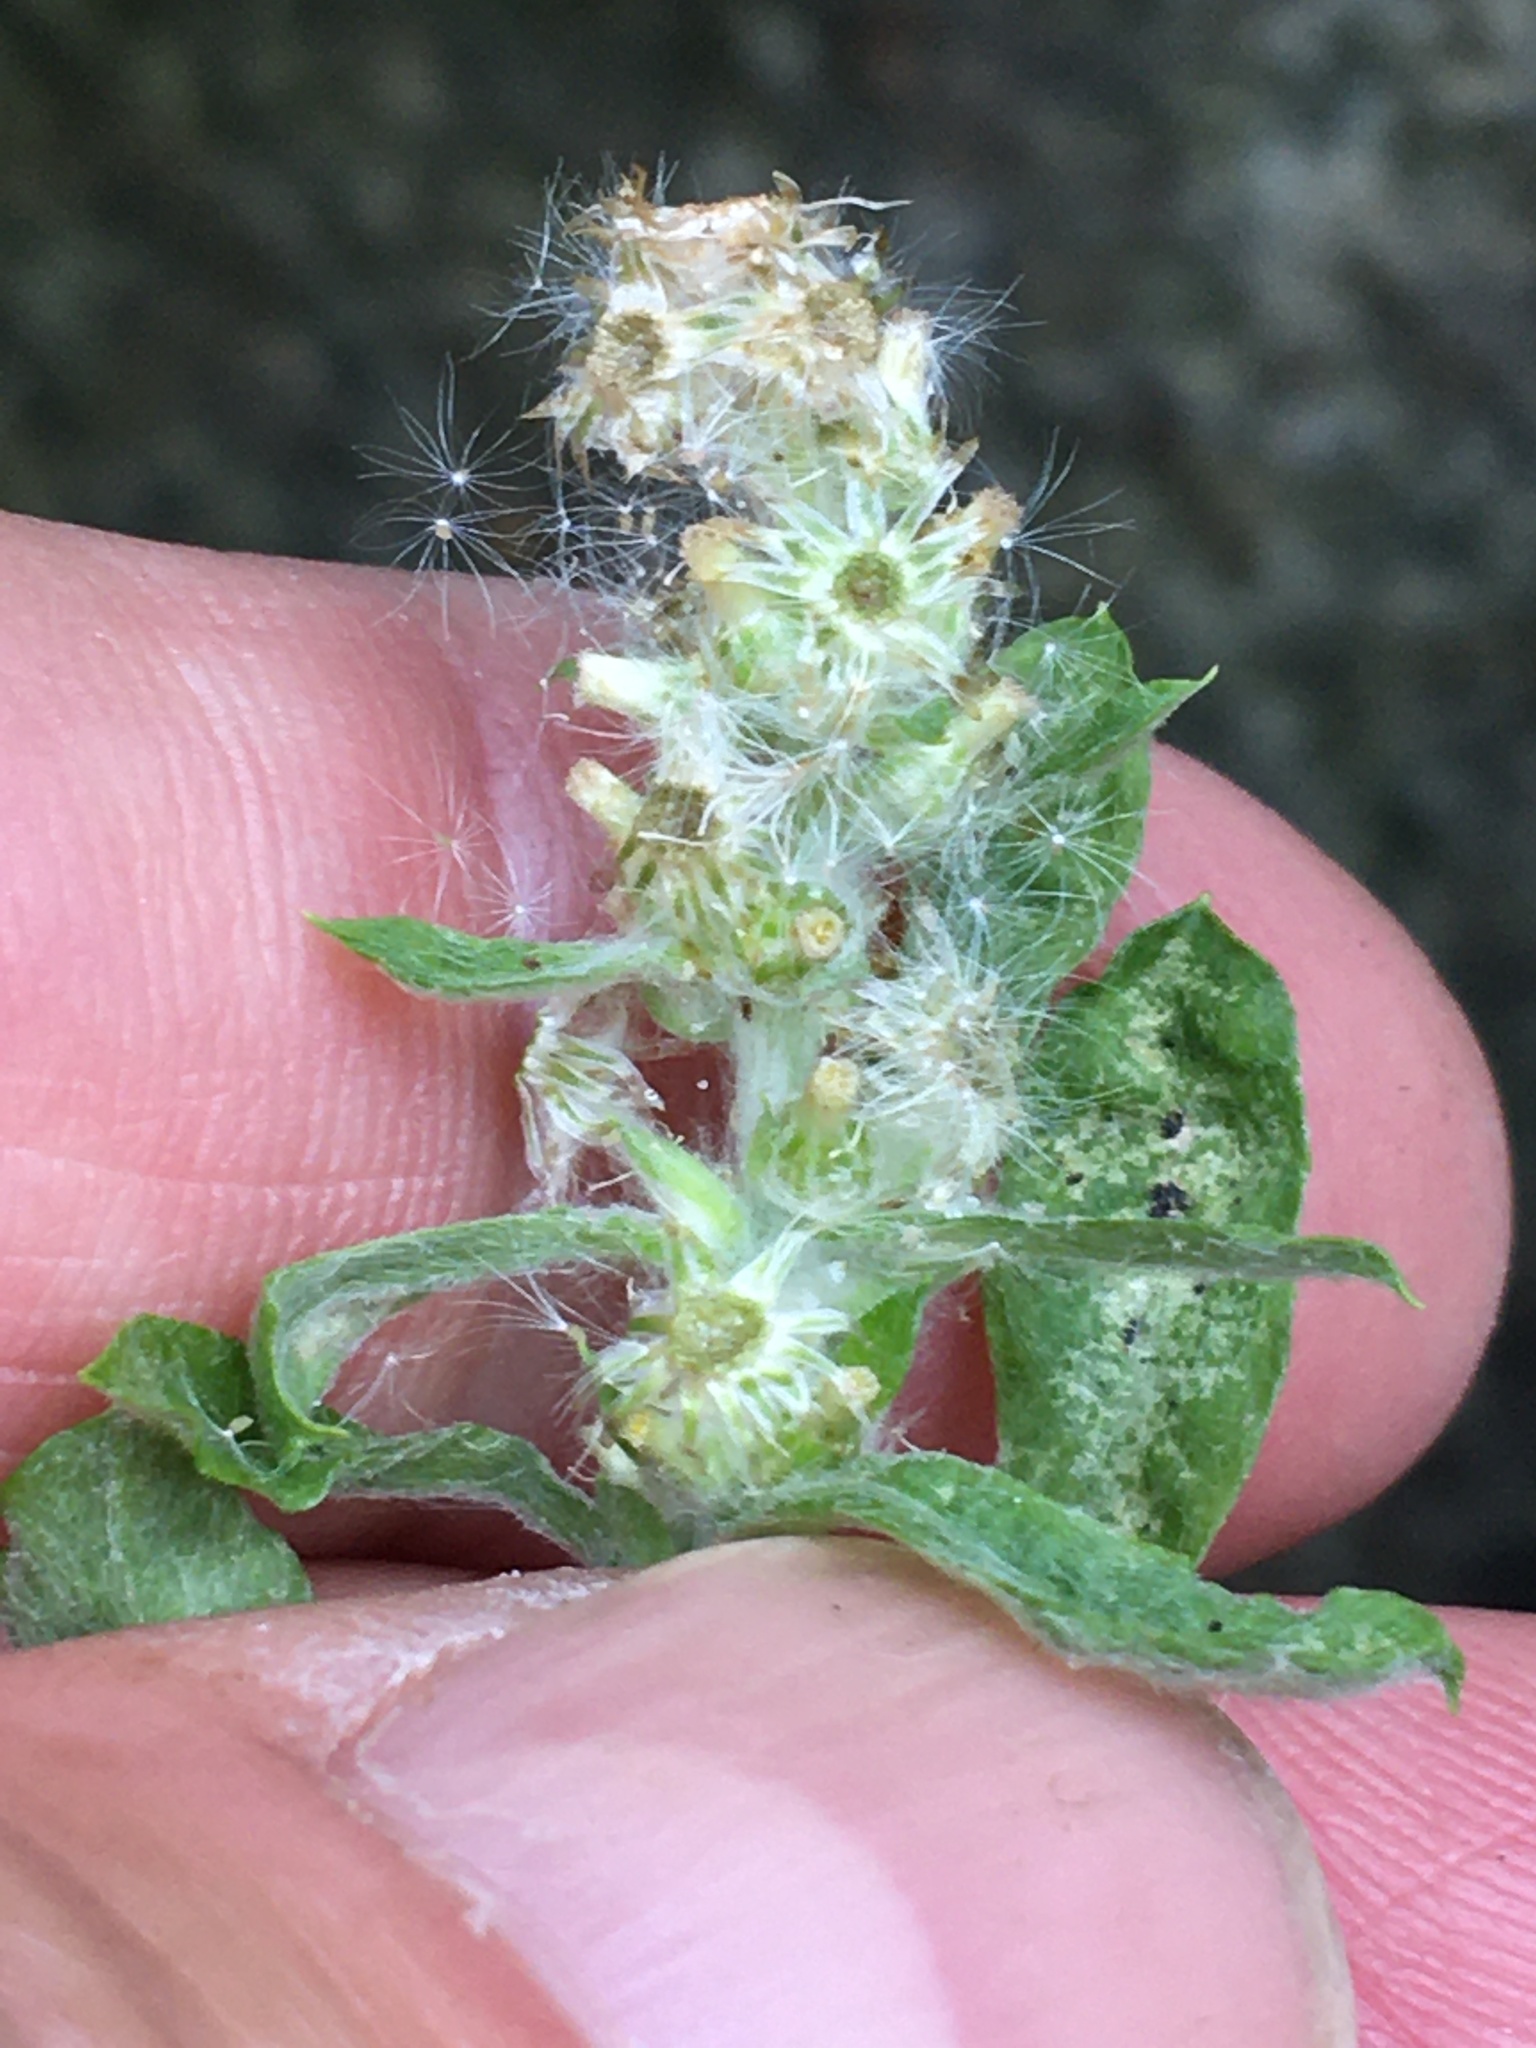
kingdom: Plantae
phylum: Tracheophyta
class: Magnoliopsida
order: Asterales
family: Asteraceae
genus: Gamochaeta
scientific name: Gamochaeta pensylvanica
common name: Pennsylvania everlasting
